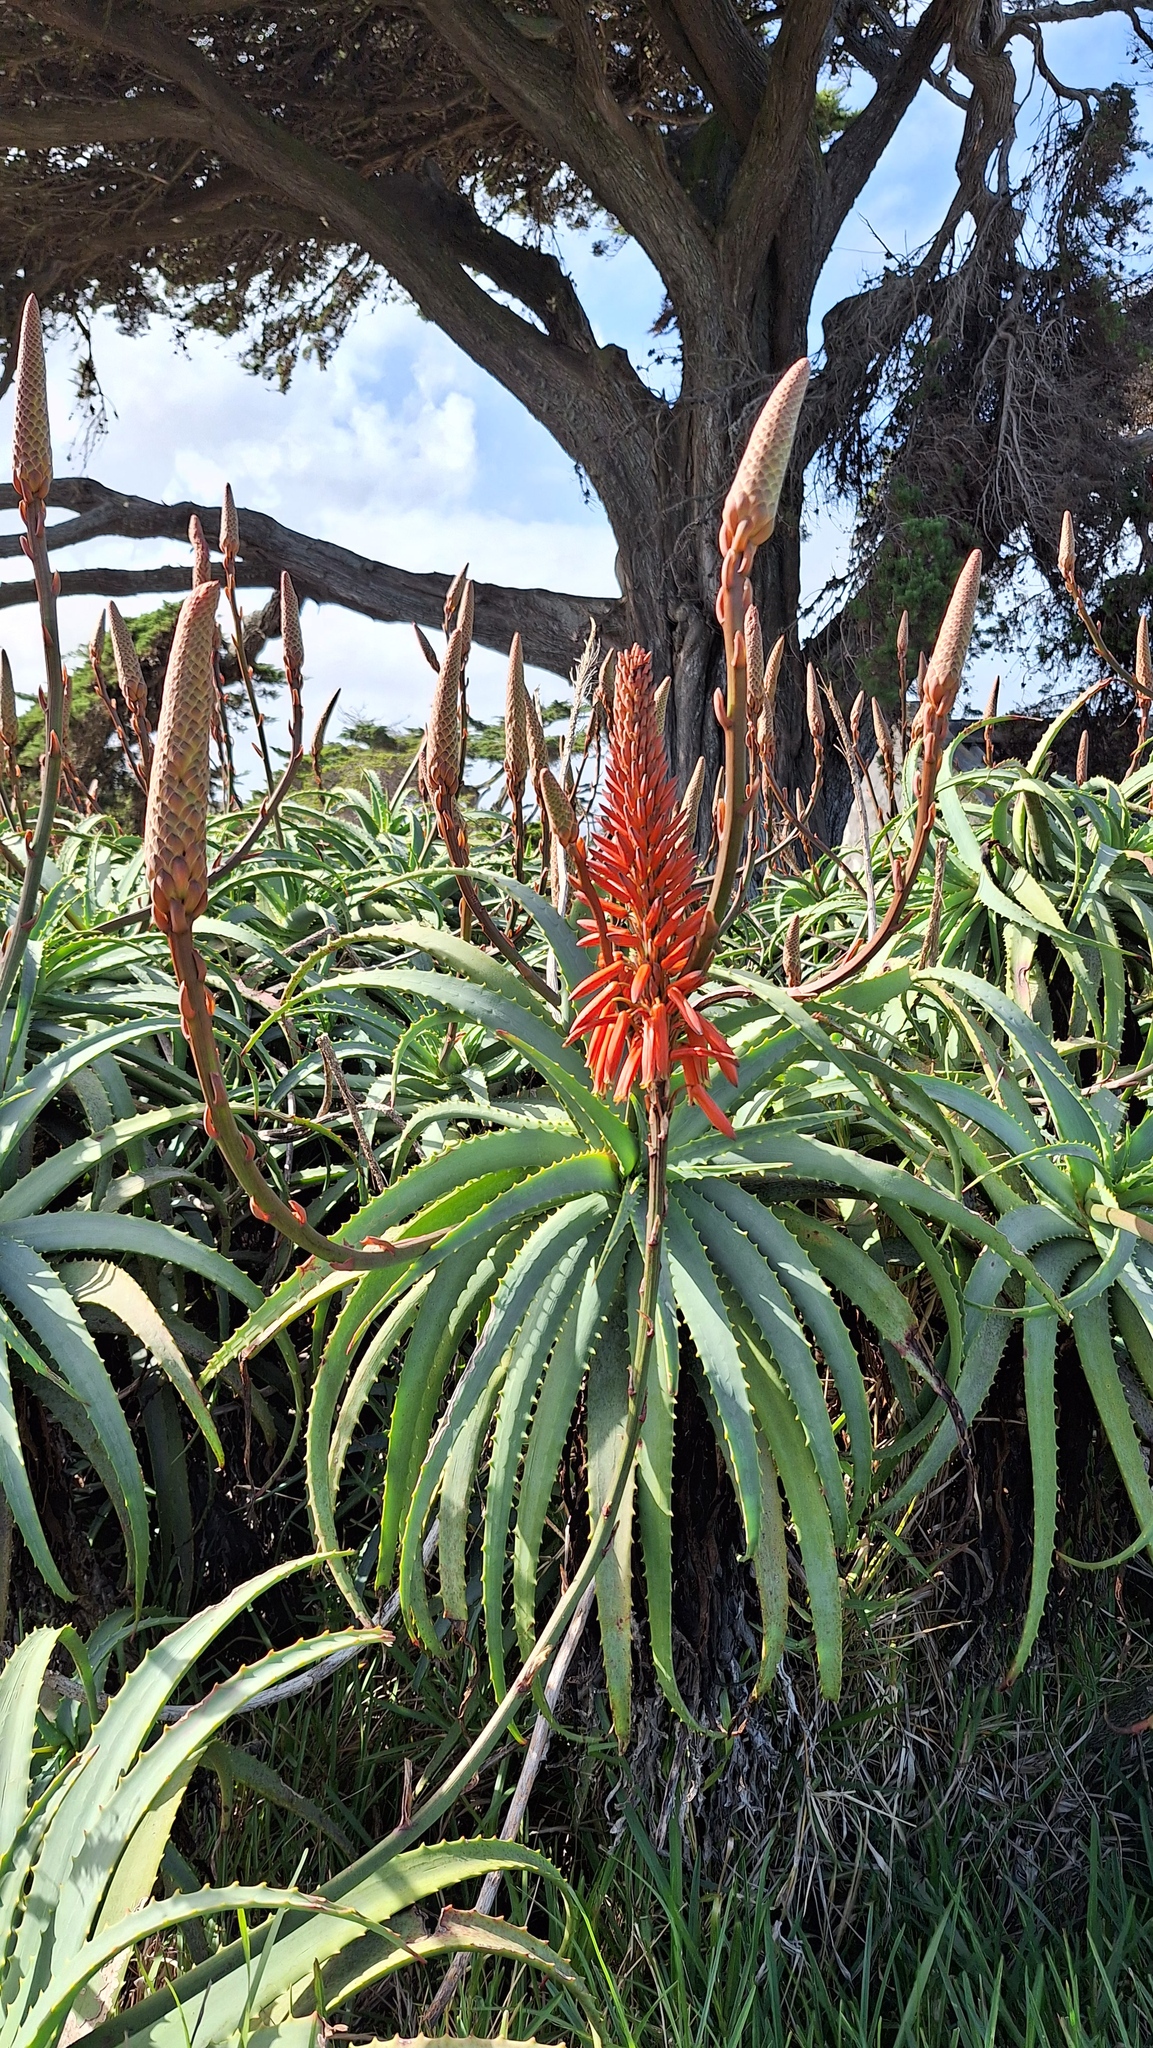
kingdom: Plantae
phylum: Tracheophyta
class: Liliopsida
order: Asparagales
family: Asphodelaceae
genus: Aloe
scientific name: Aloe arborescens
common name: Candelabra aloe
